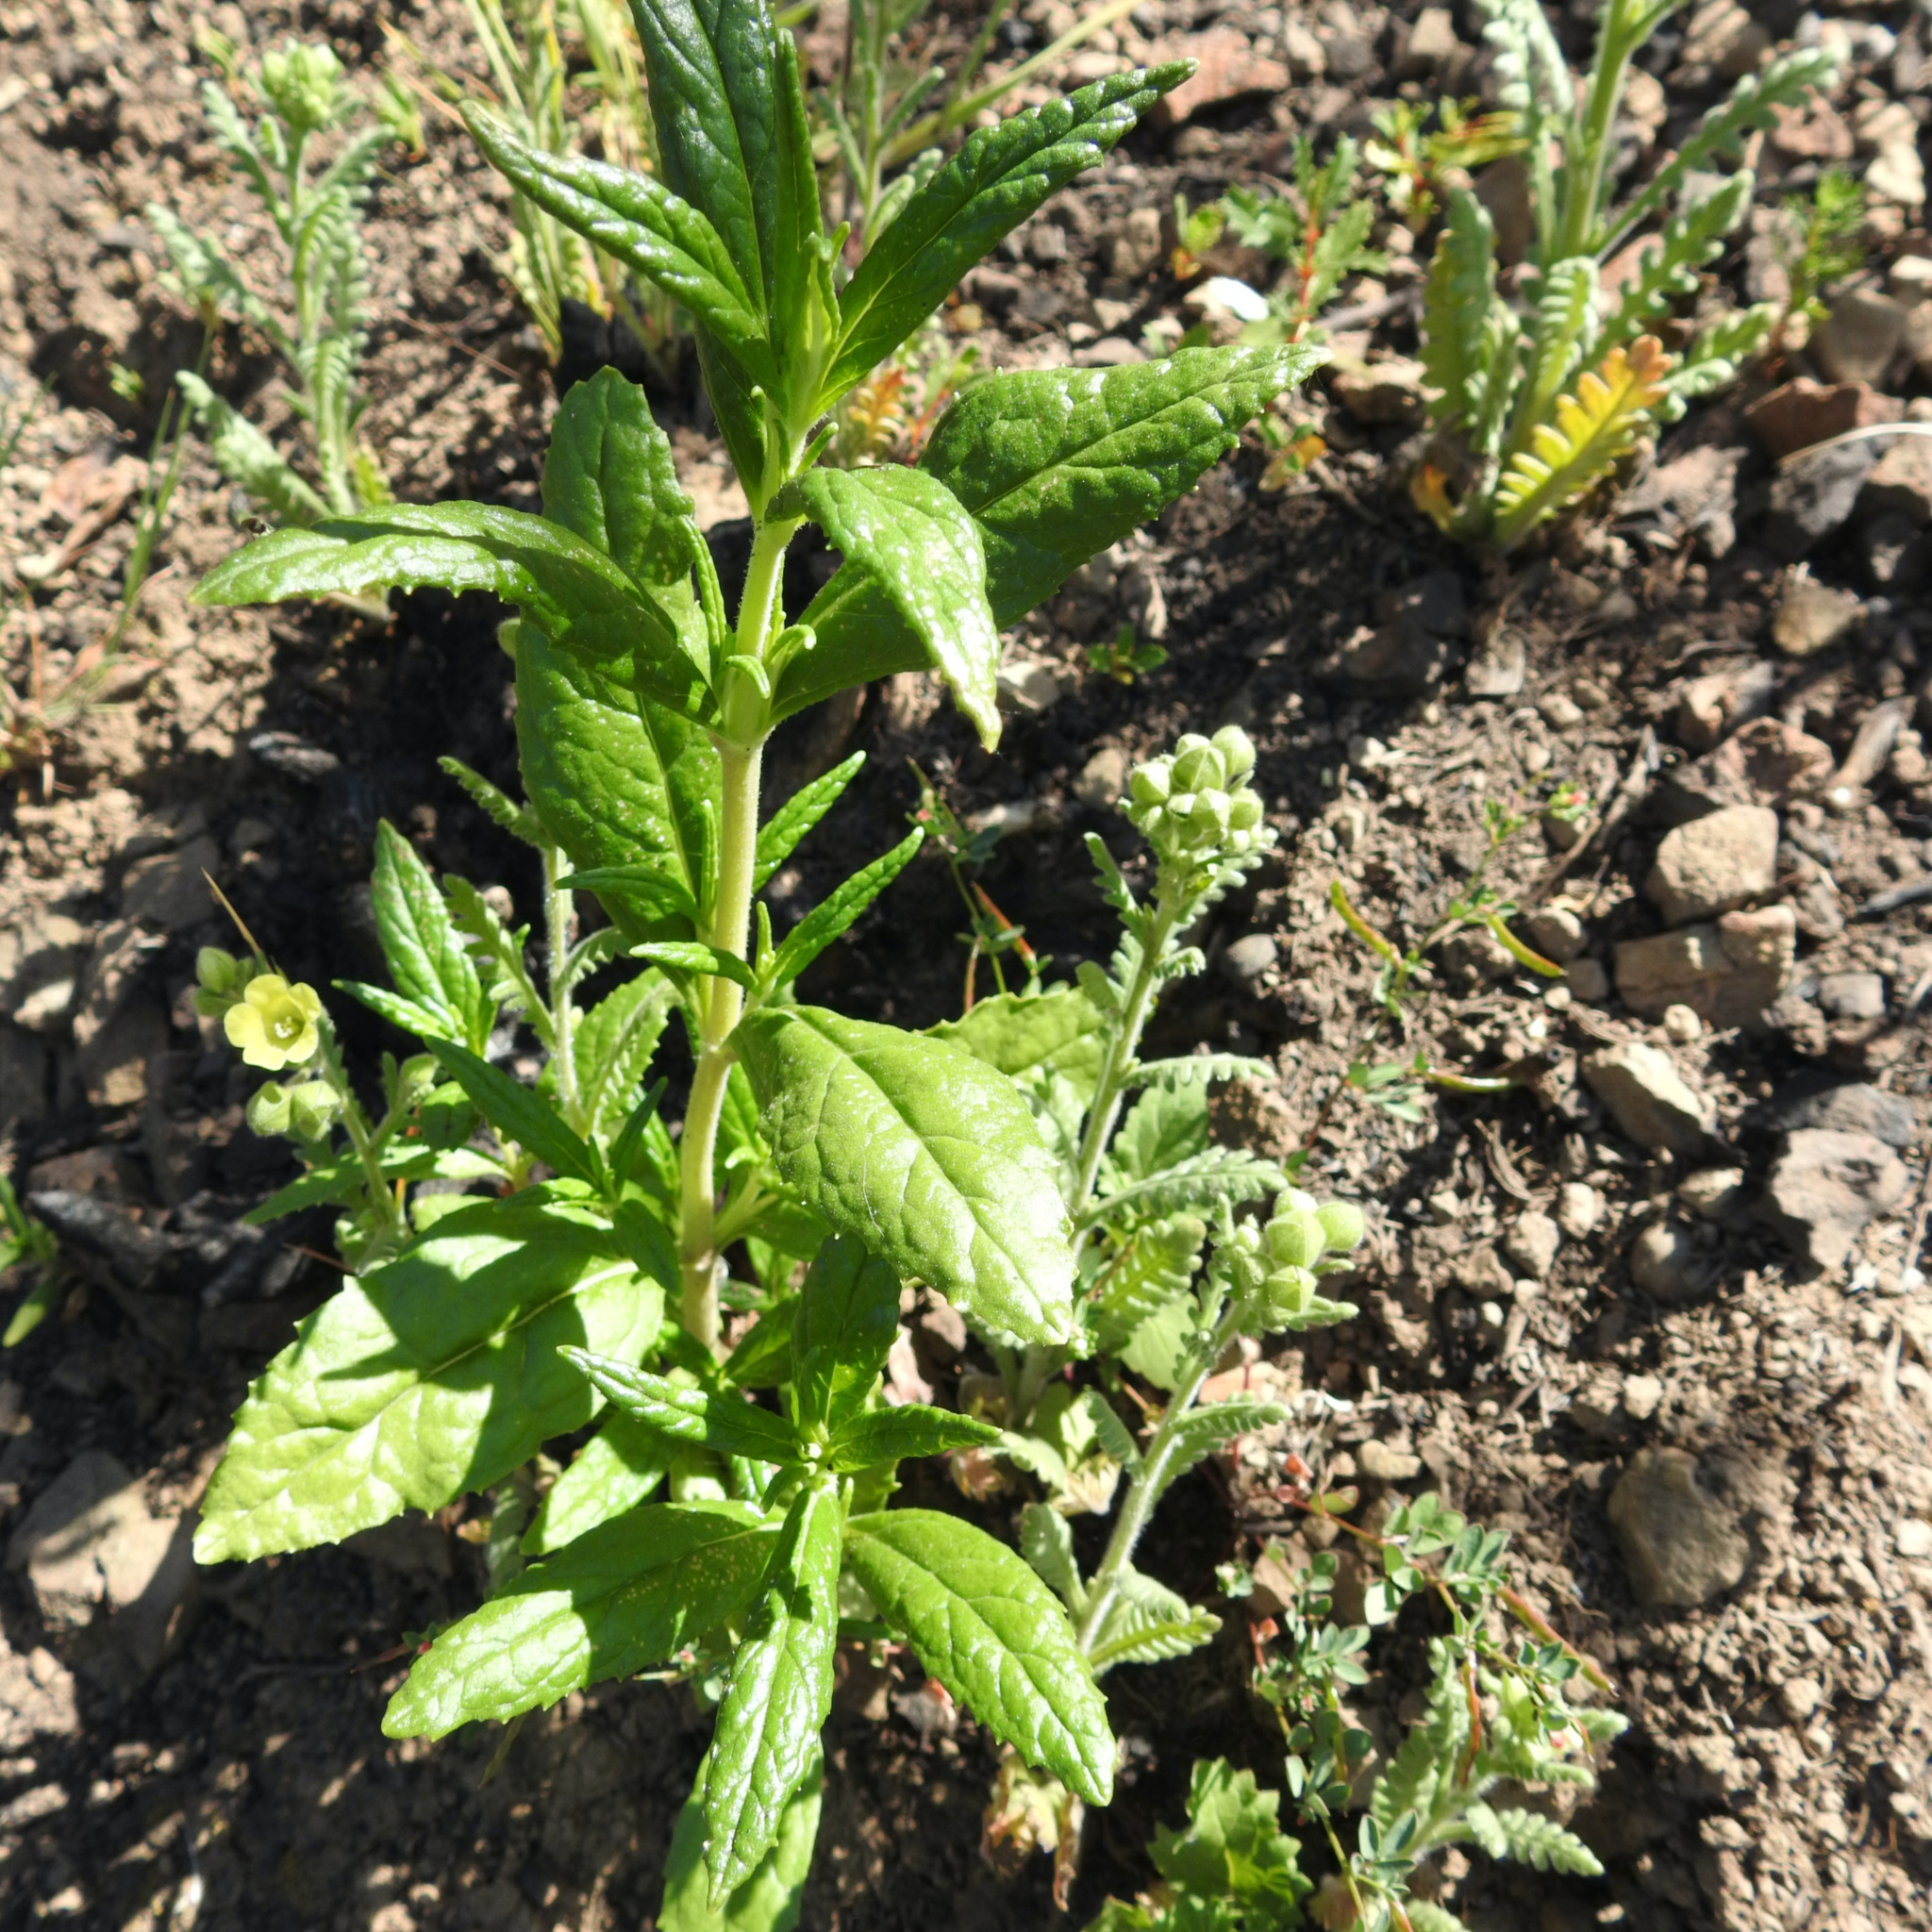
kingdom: Plantae
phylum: Tracheophyta
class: Magnoliopsida
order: Boraginales
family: Hydrophyllaceae
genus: Emmenanthe
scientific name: Emmenanthe penduliflora
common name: Whispering-bells
